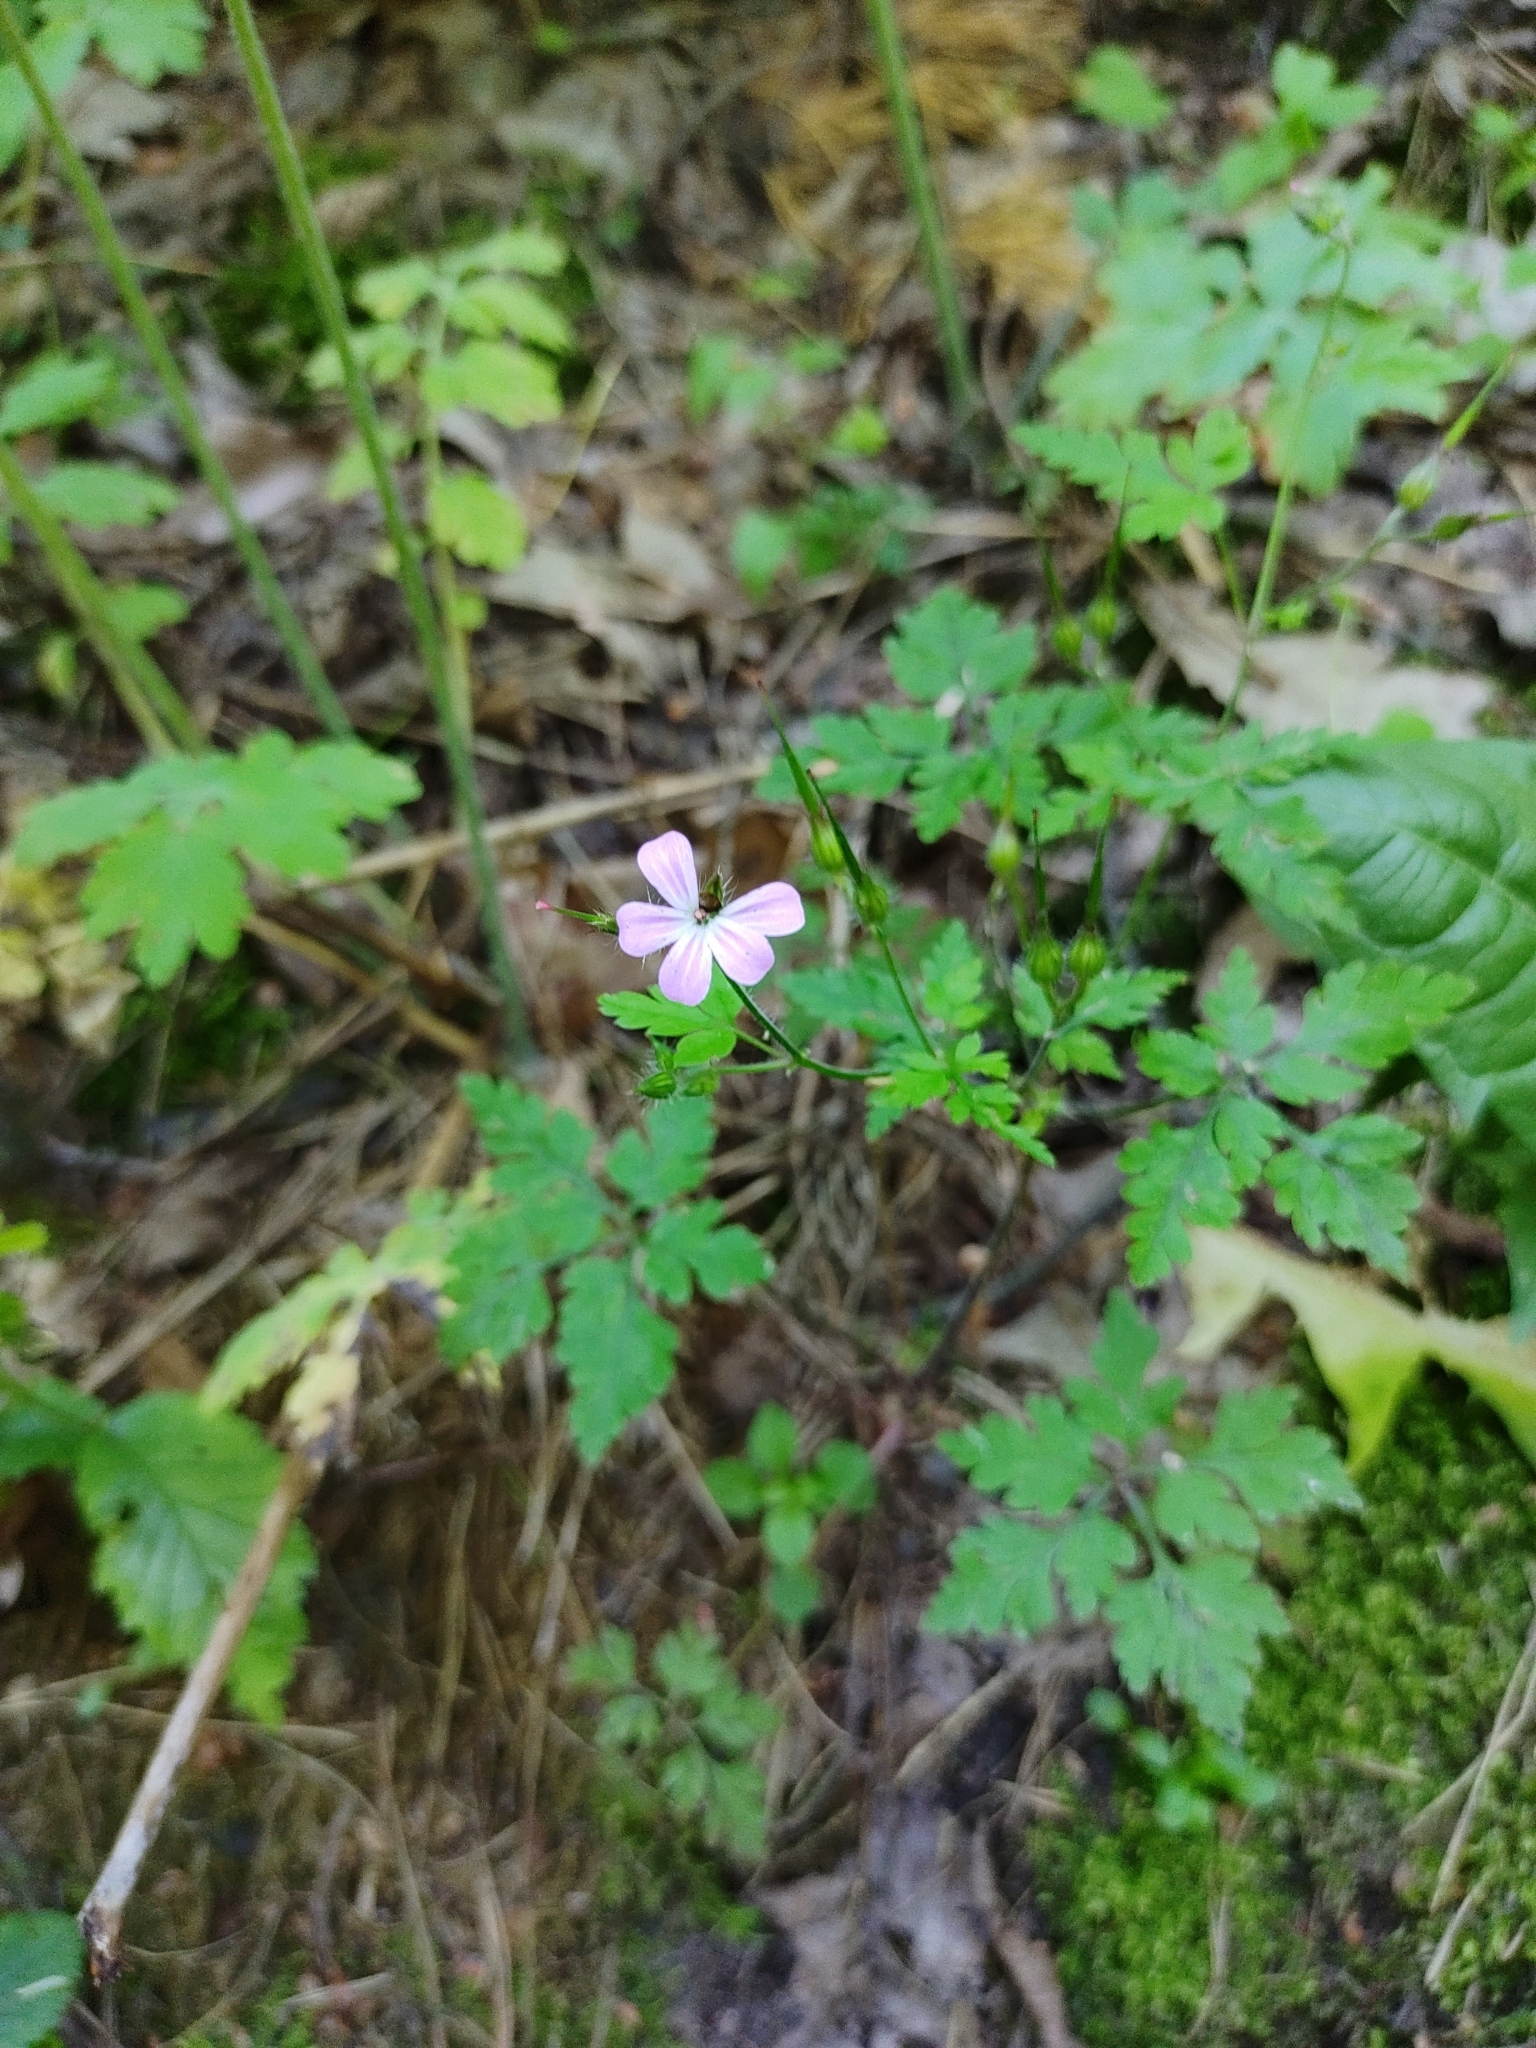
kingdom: Plantae
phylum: Tracheophyta
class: Magnoliopsida
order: Geraniales
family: Geraniaceae
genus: Geranium
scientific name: Geranium robertianum
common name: Herb-robert
